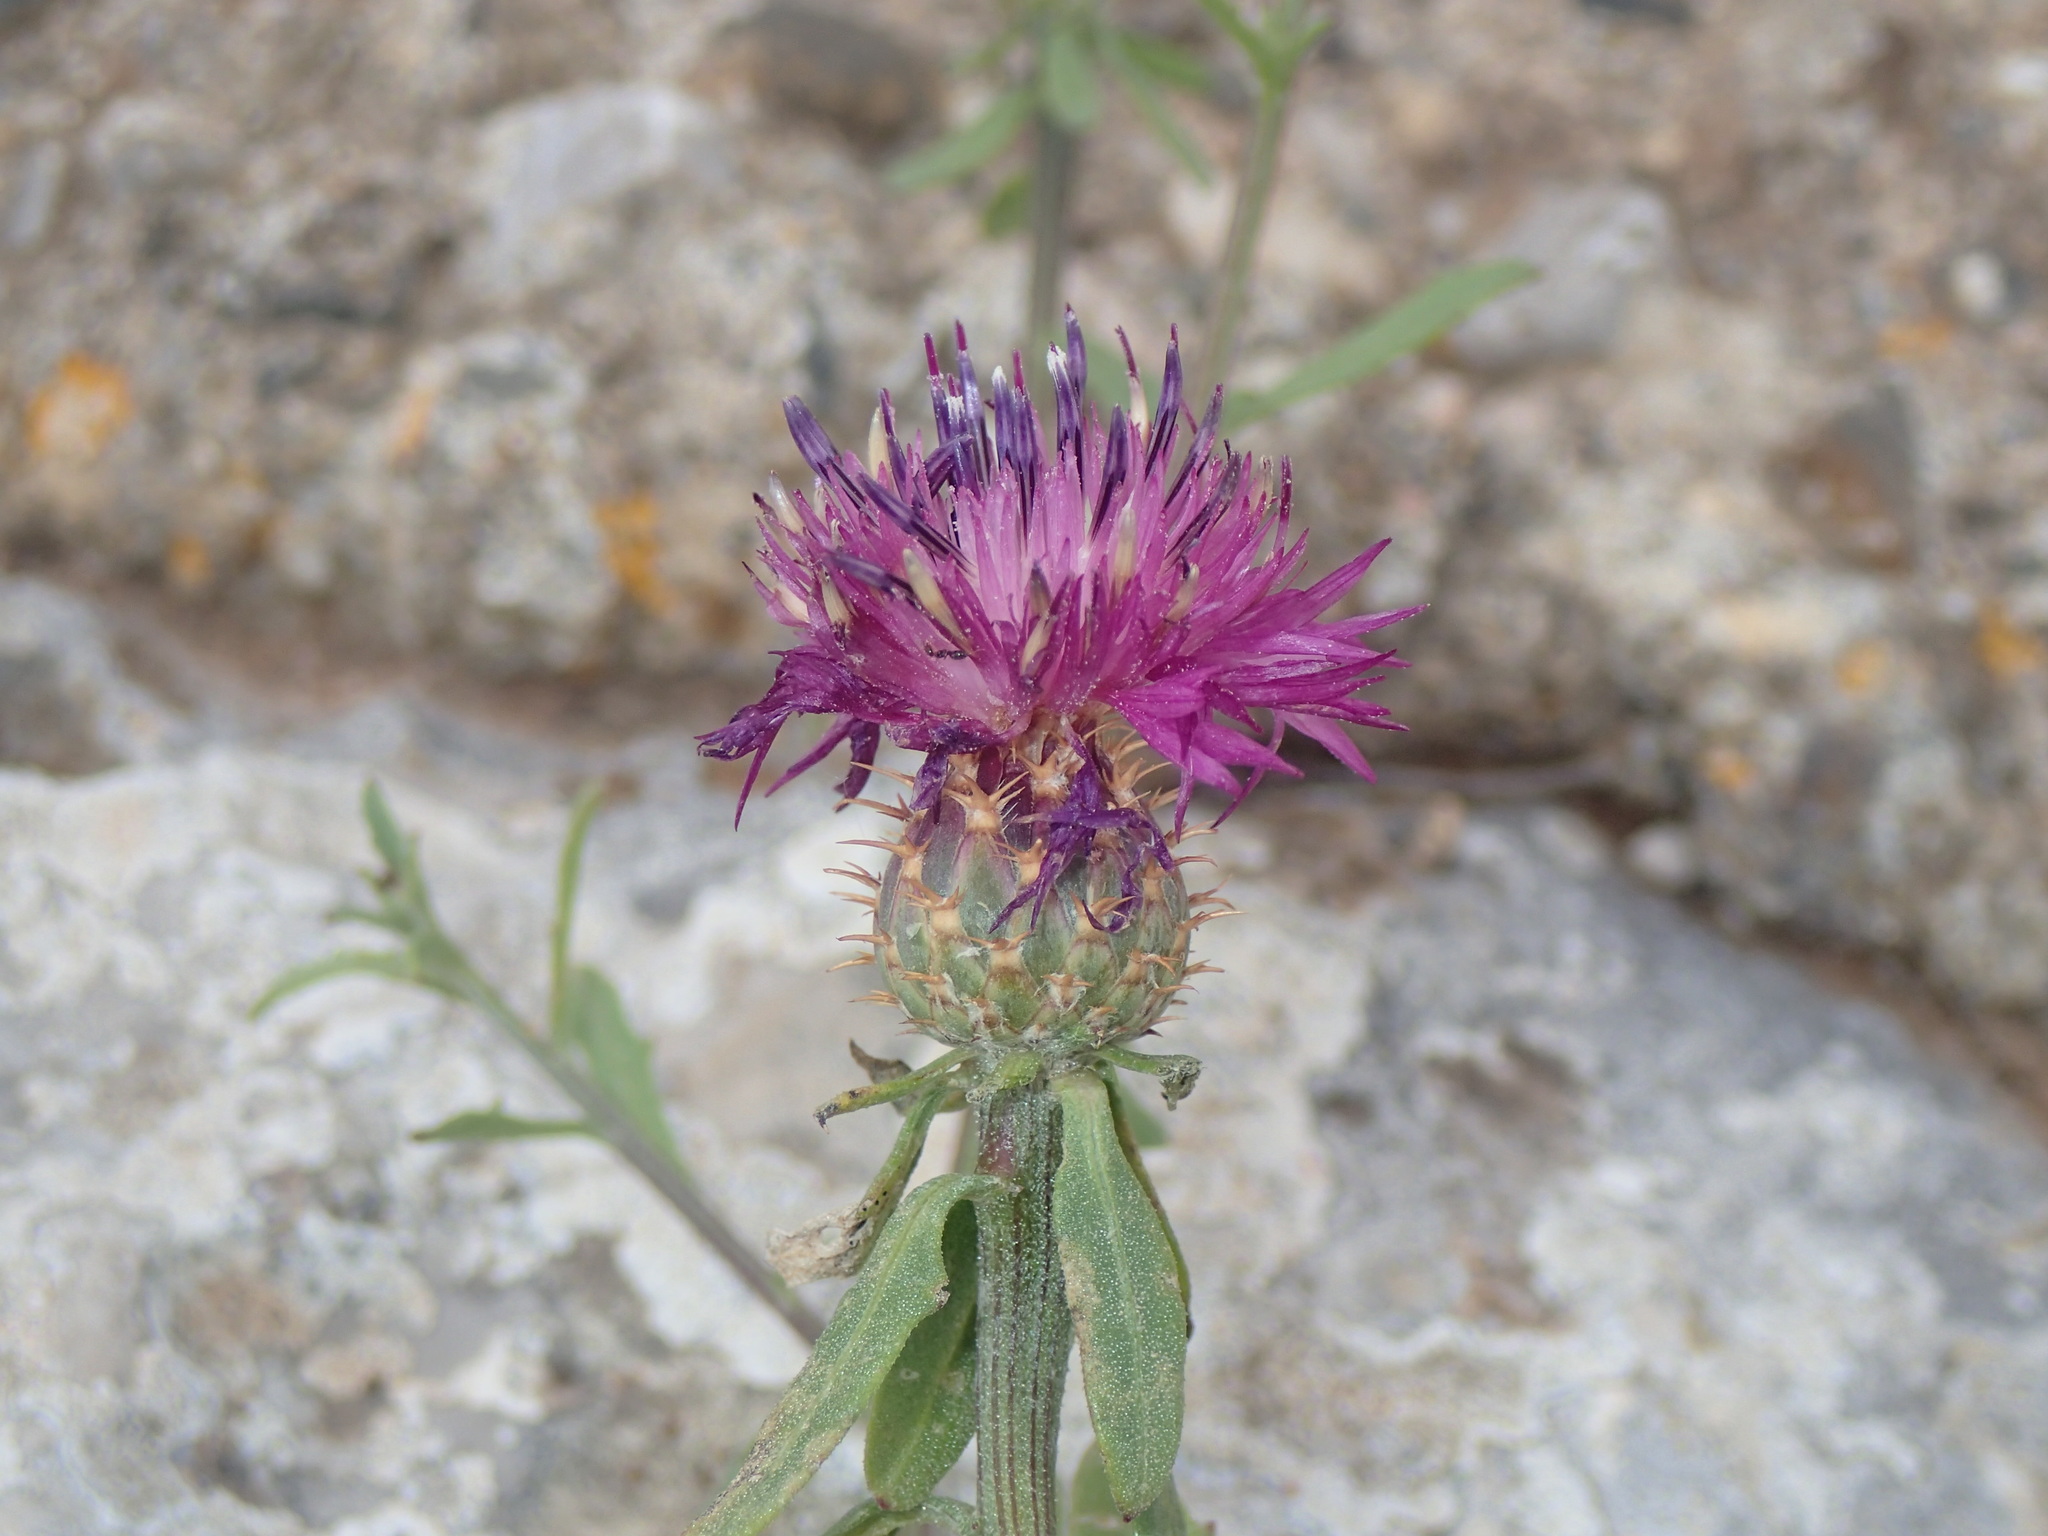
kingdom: Plantae
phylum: Tracheophyta
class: Magnoliopsida
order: Asterales
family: Asteraceae
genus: Centaurea
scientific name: Centaurea aspera
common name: Rough star-thistle
